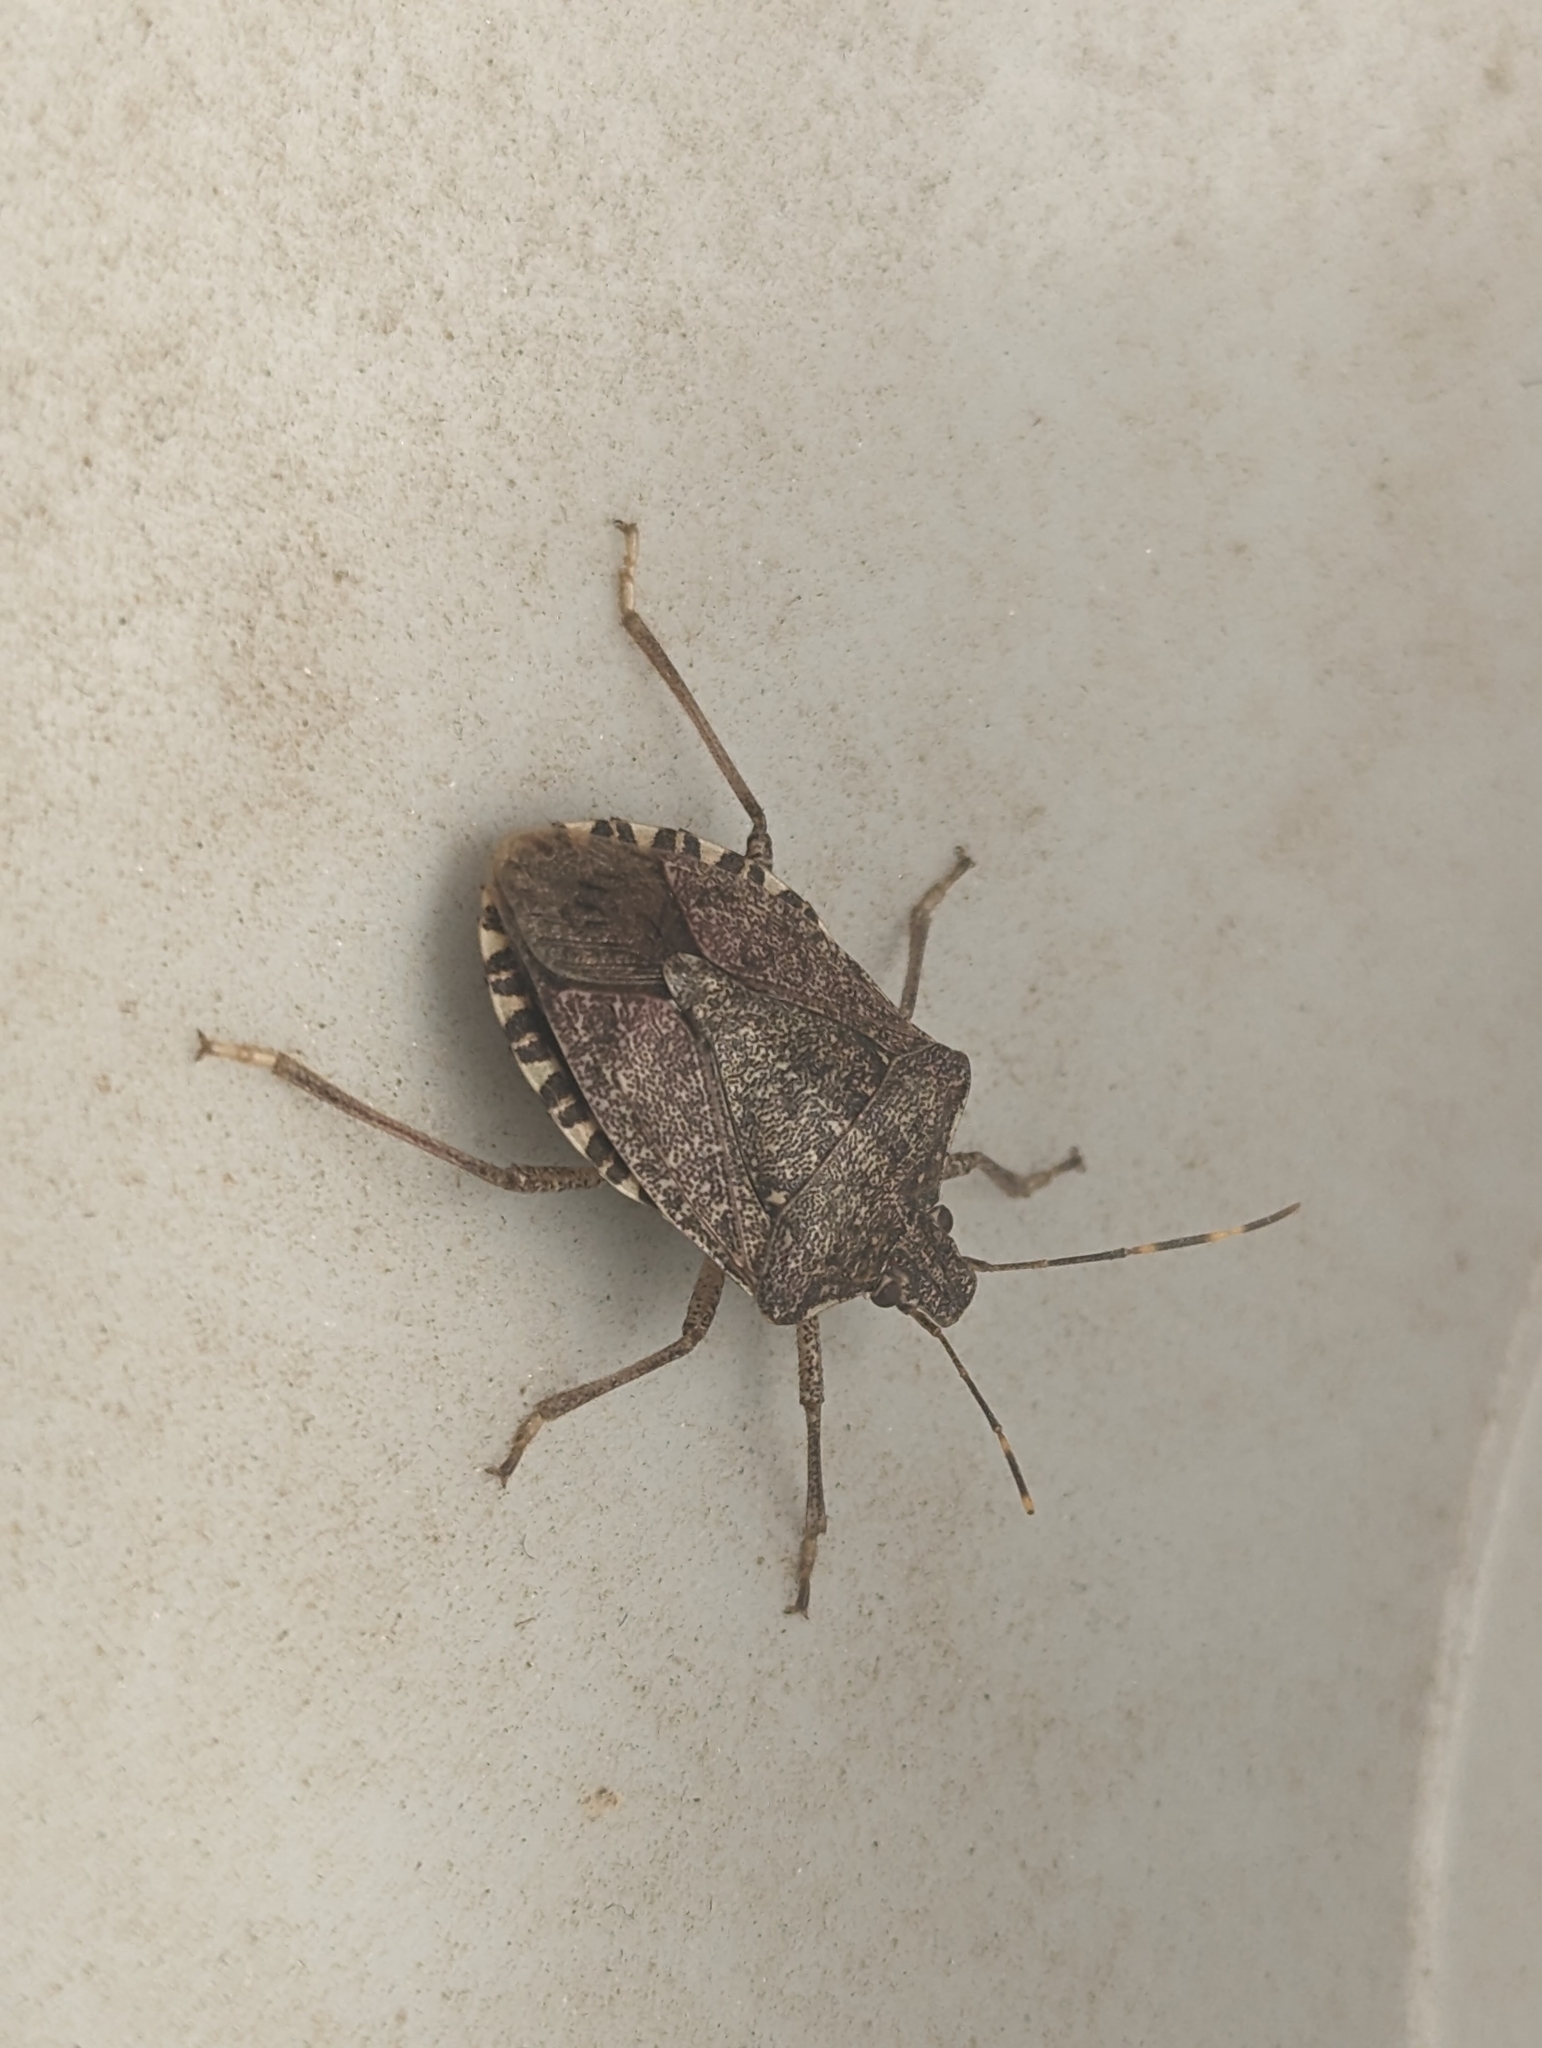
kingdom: Animalia
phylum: Arthropoda
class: Insecta
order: Hemiptera
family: Pentatomidae
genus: Halyomorpha
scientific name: Halyomorpha halys
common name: Brown marmorated stink bug
